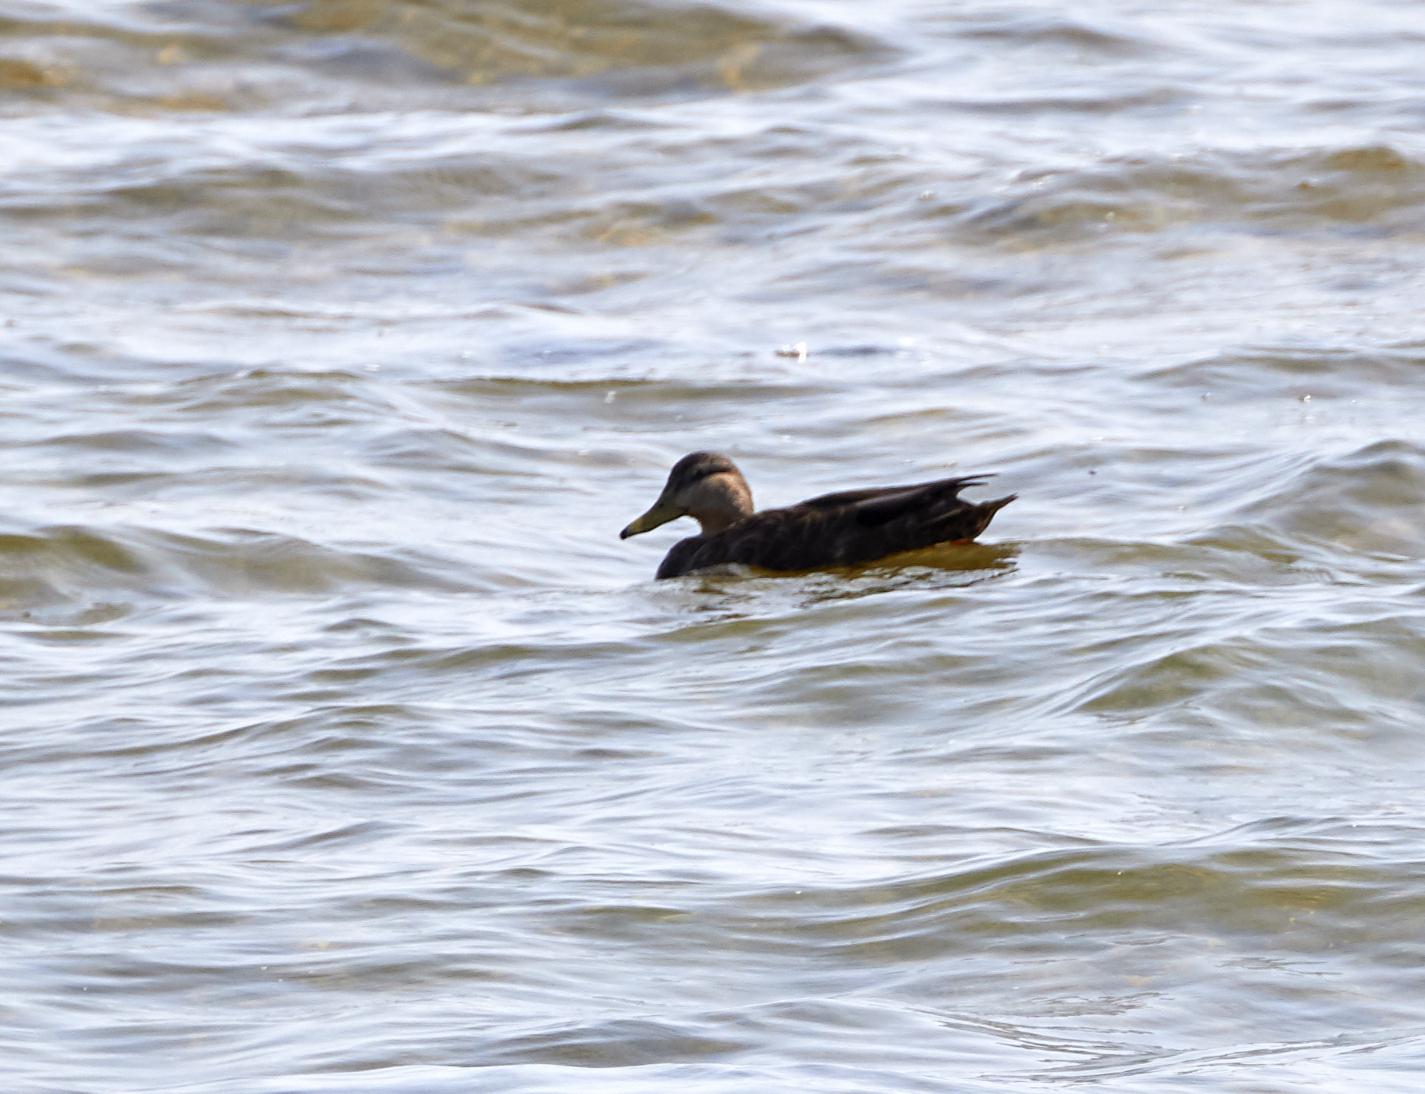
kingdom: Animalia
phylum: Chordata
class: Aves
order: Anseriformes
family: Anatidae
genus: Anas
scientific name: Anas rubripes
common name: American black duck
